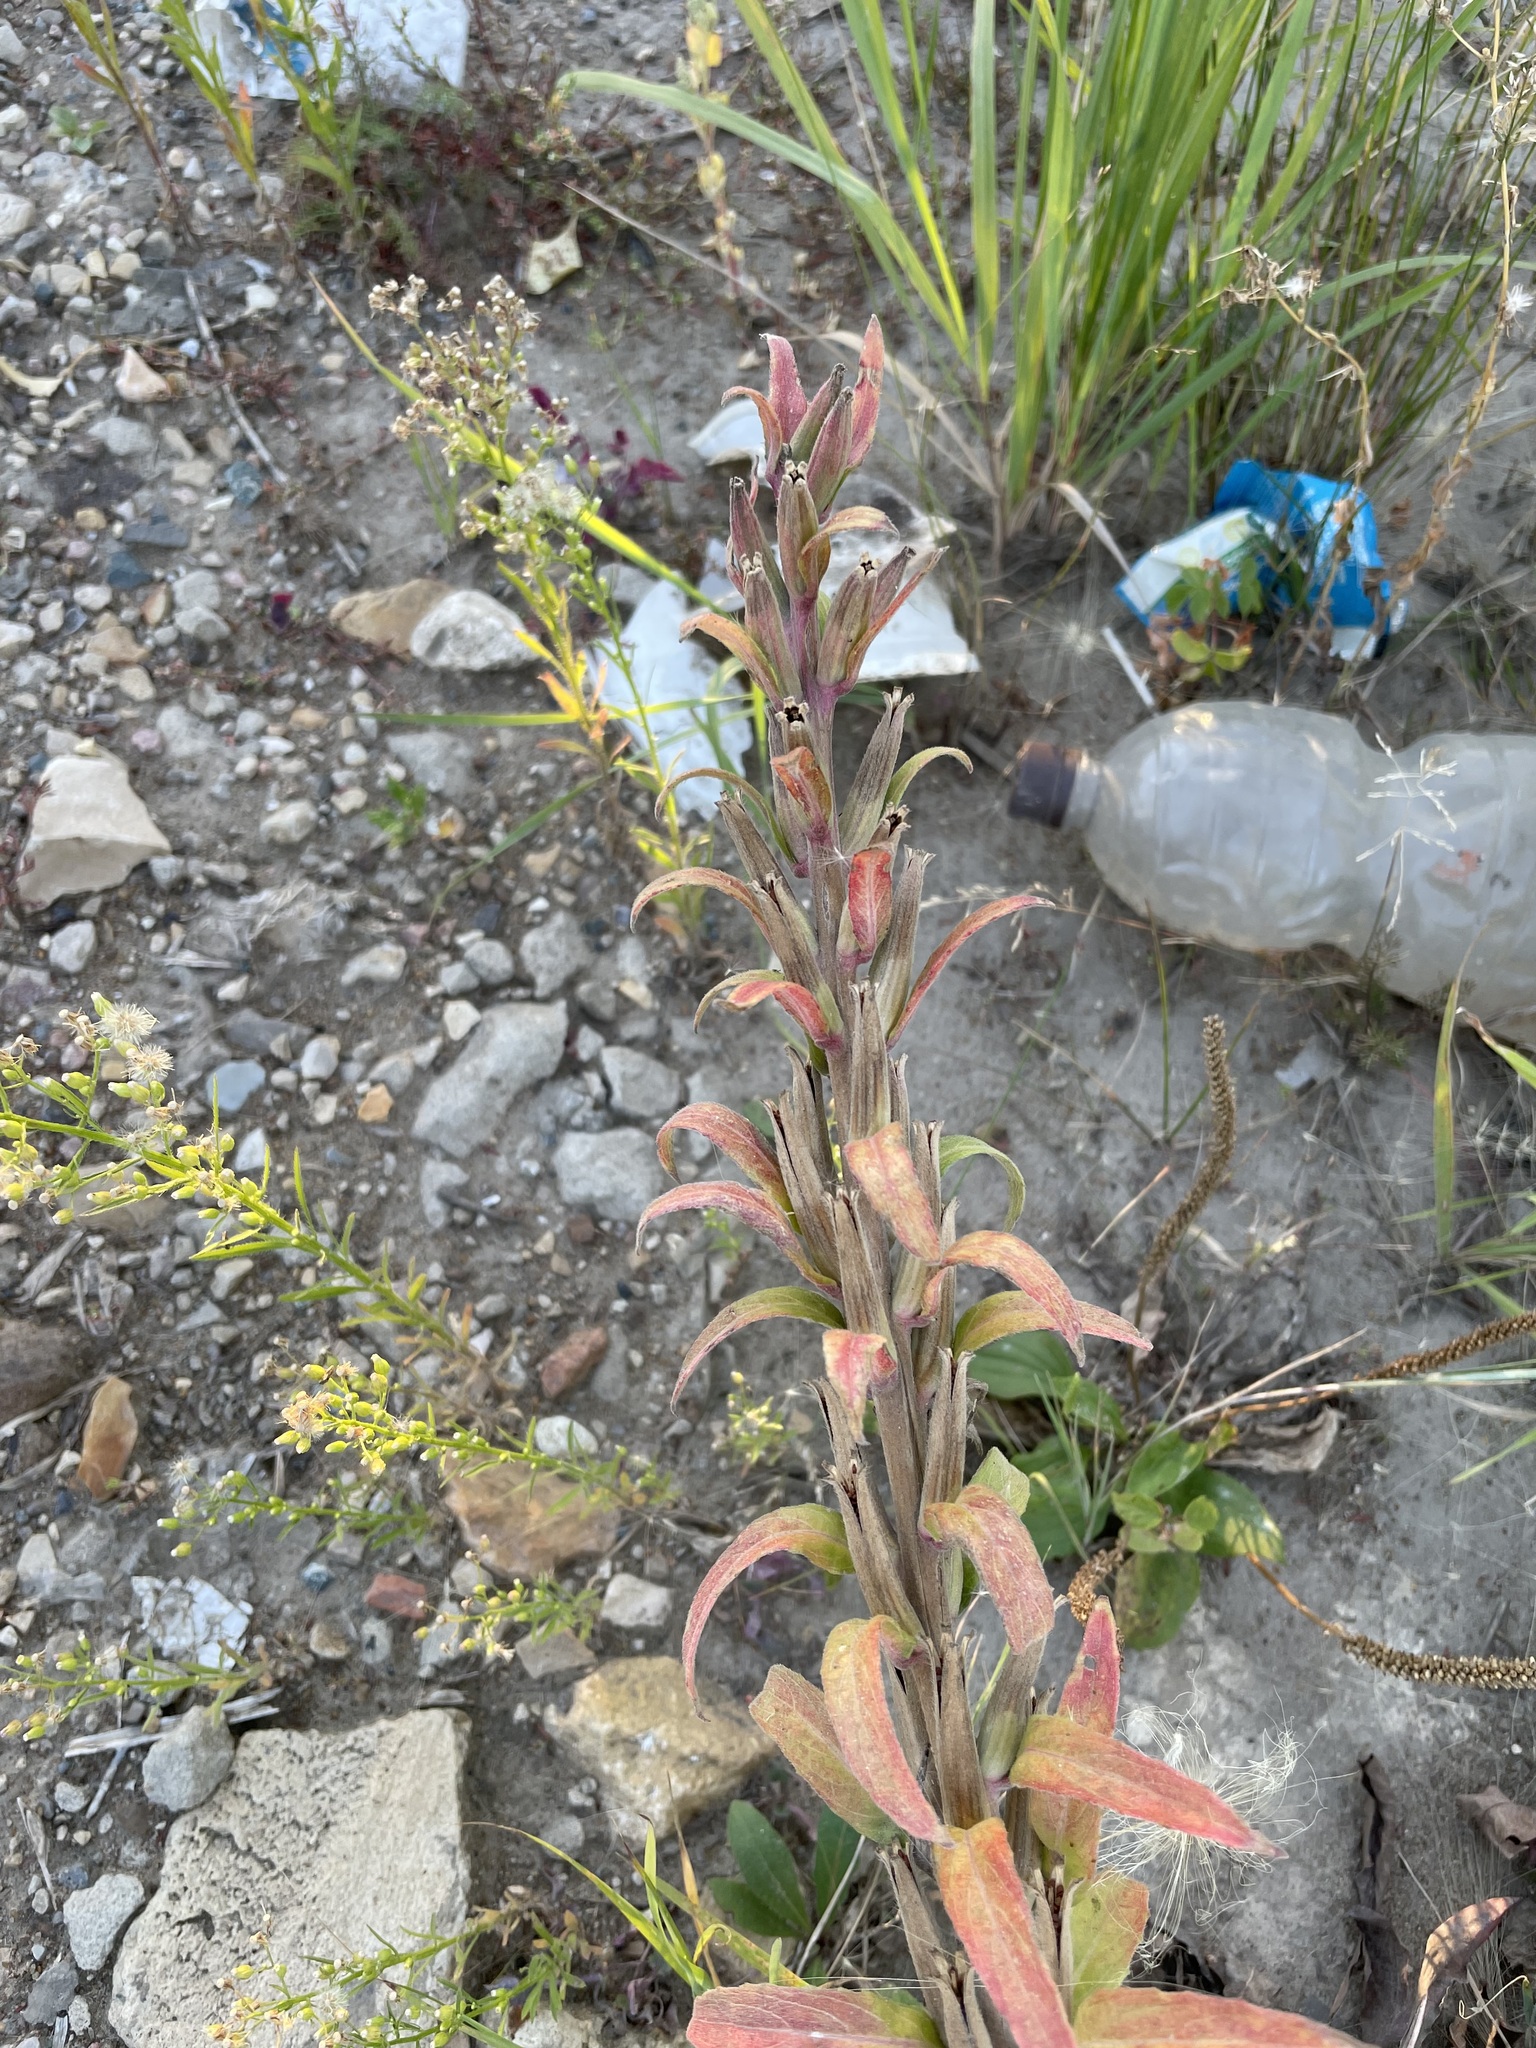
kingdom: Plantae
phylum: Tracheophyta
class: Magnoliopsida
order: Myrtales
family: Onagraceae
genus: Oenothera
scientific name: Oenothera villosa
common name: Hairy evening-primrose
